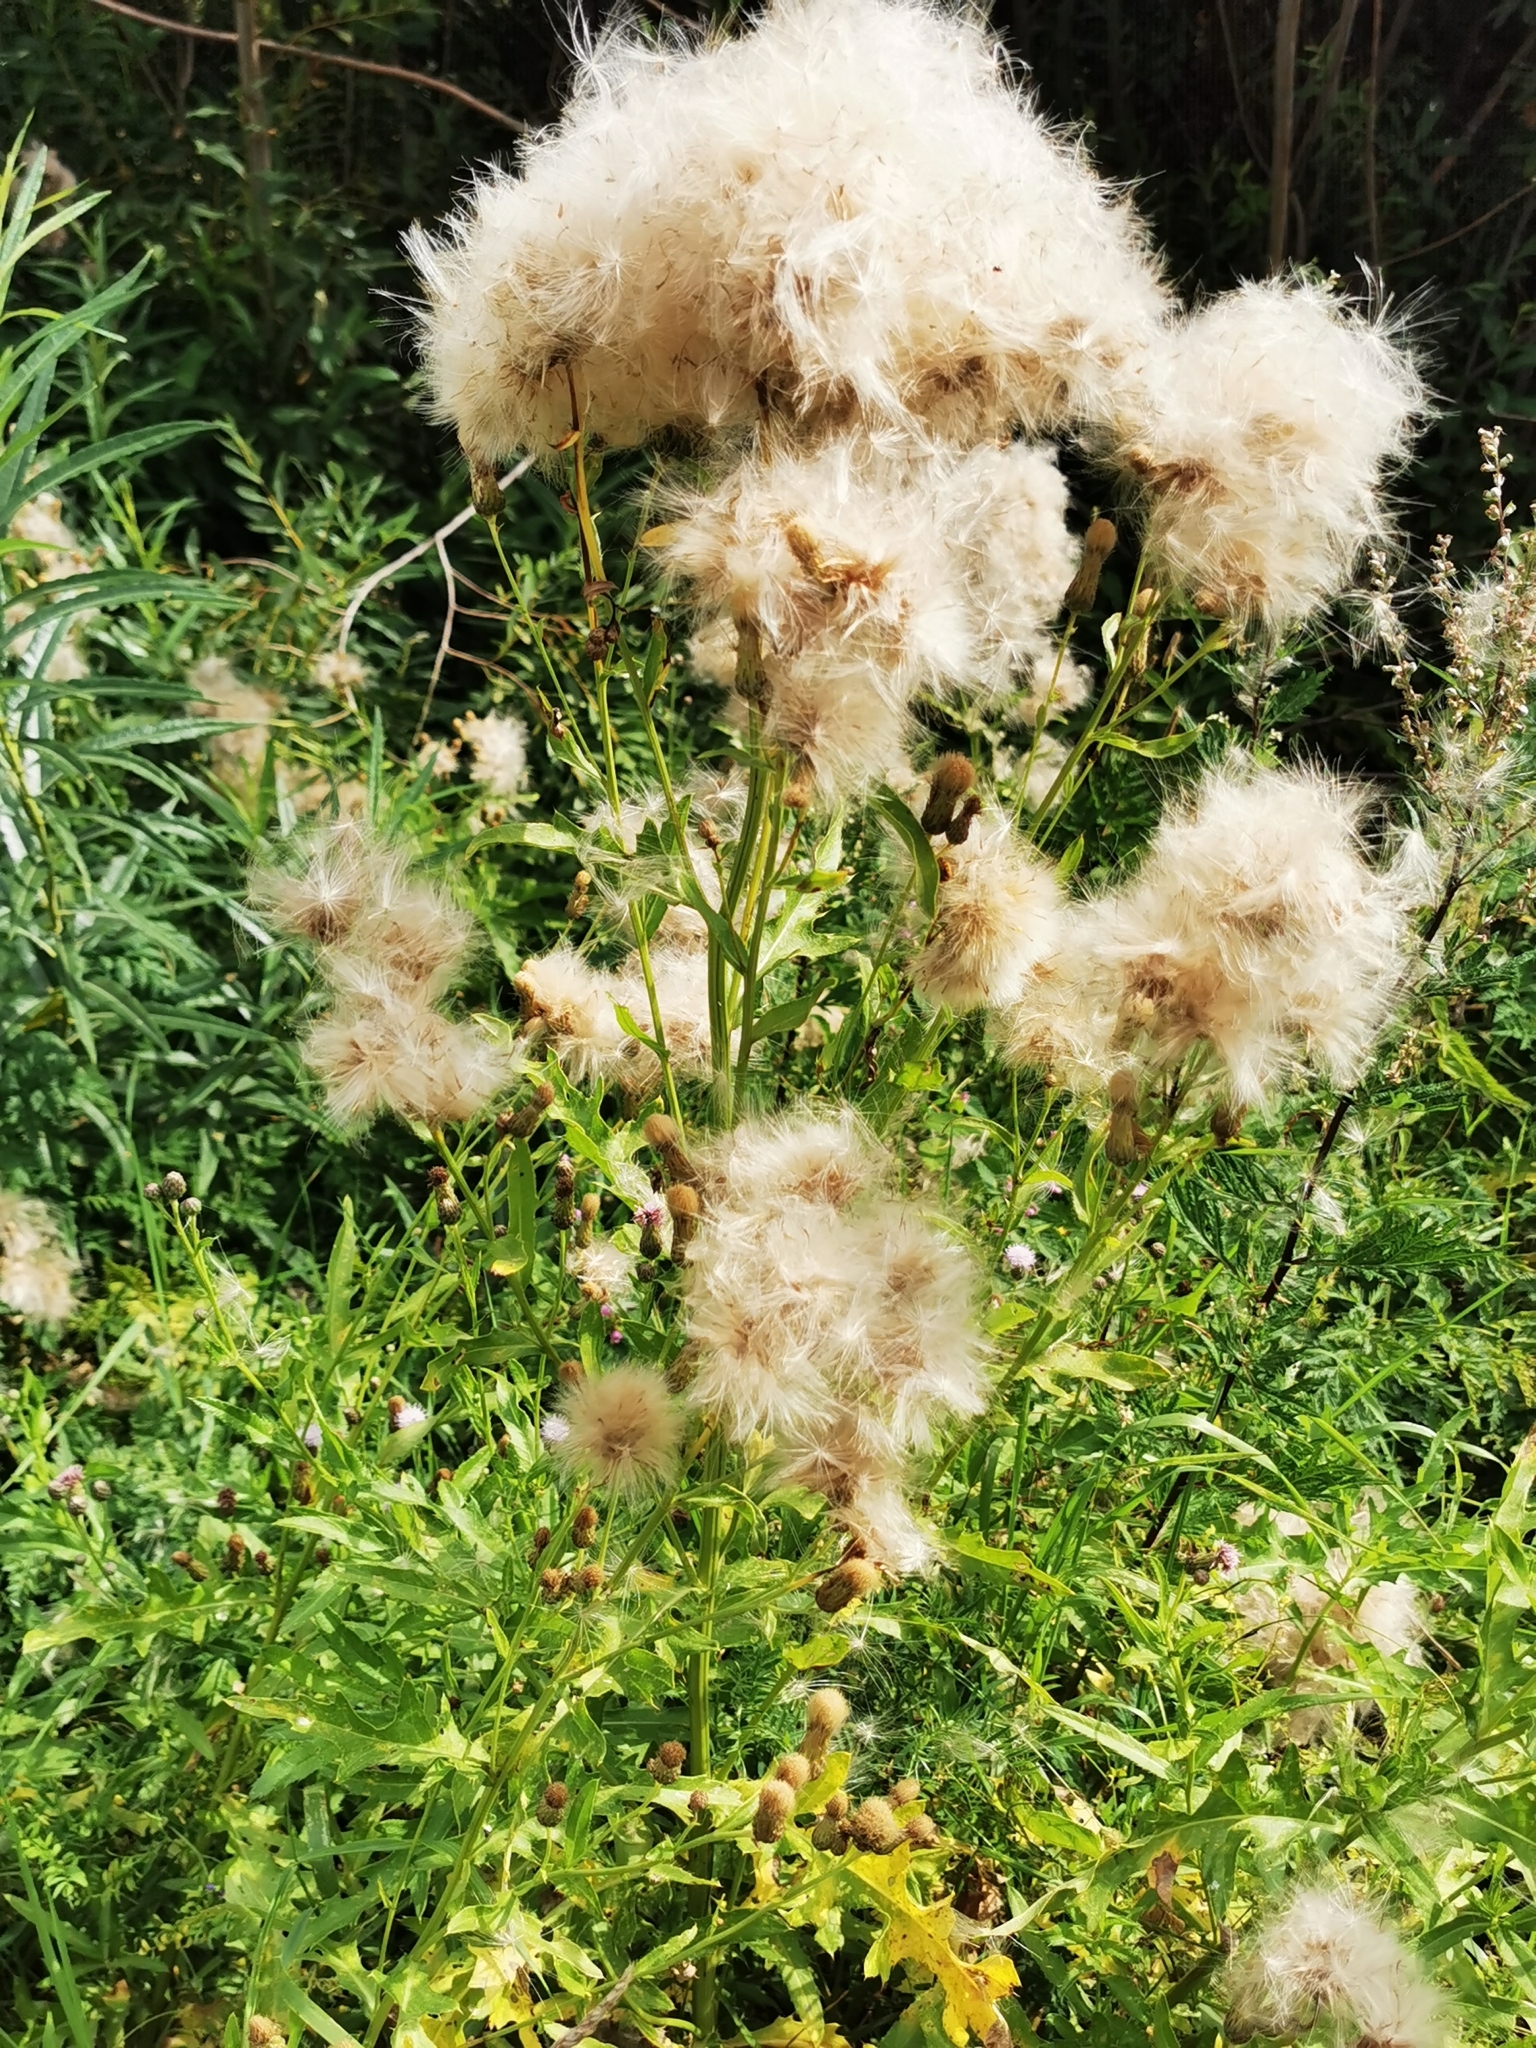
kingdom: Plantae
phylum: Tracheophyta
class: Magnoliopsida
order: Asterales
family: Asteraceae
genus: Cirsium
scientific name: Cirsium arvense
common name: Creeping thistle
